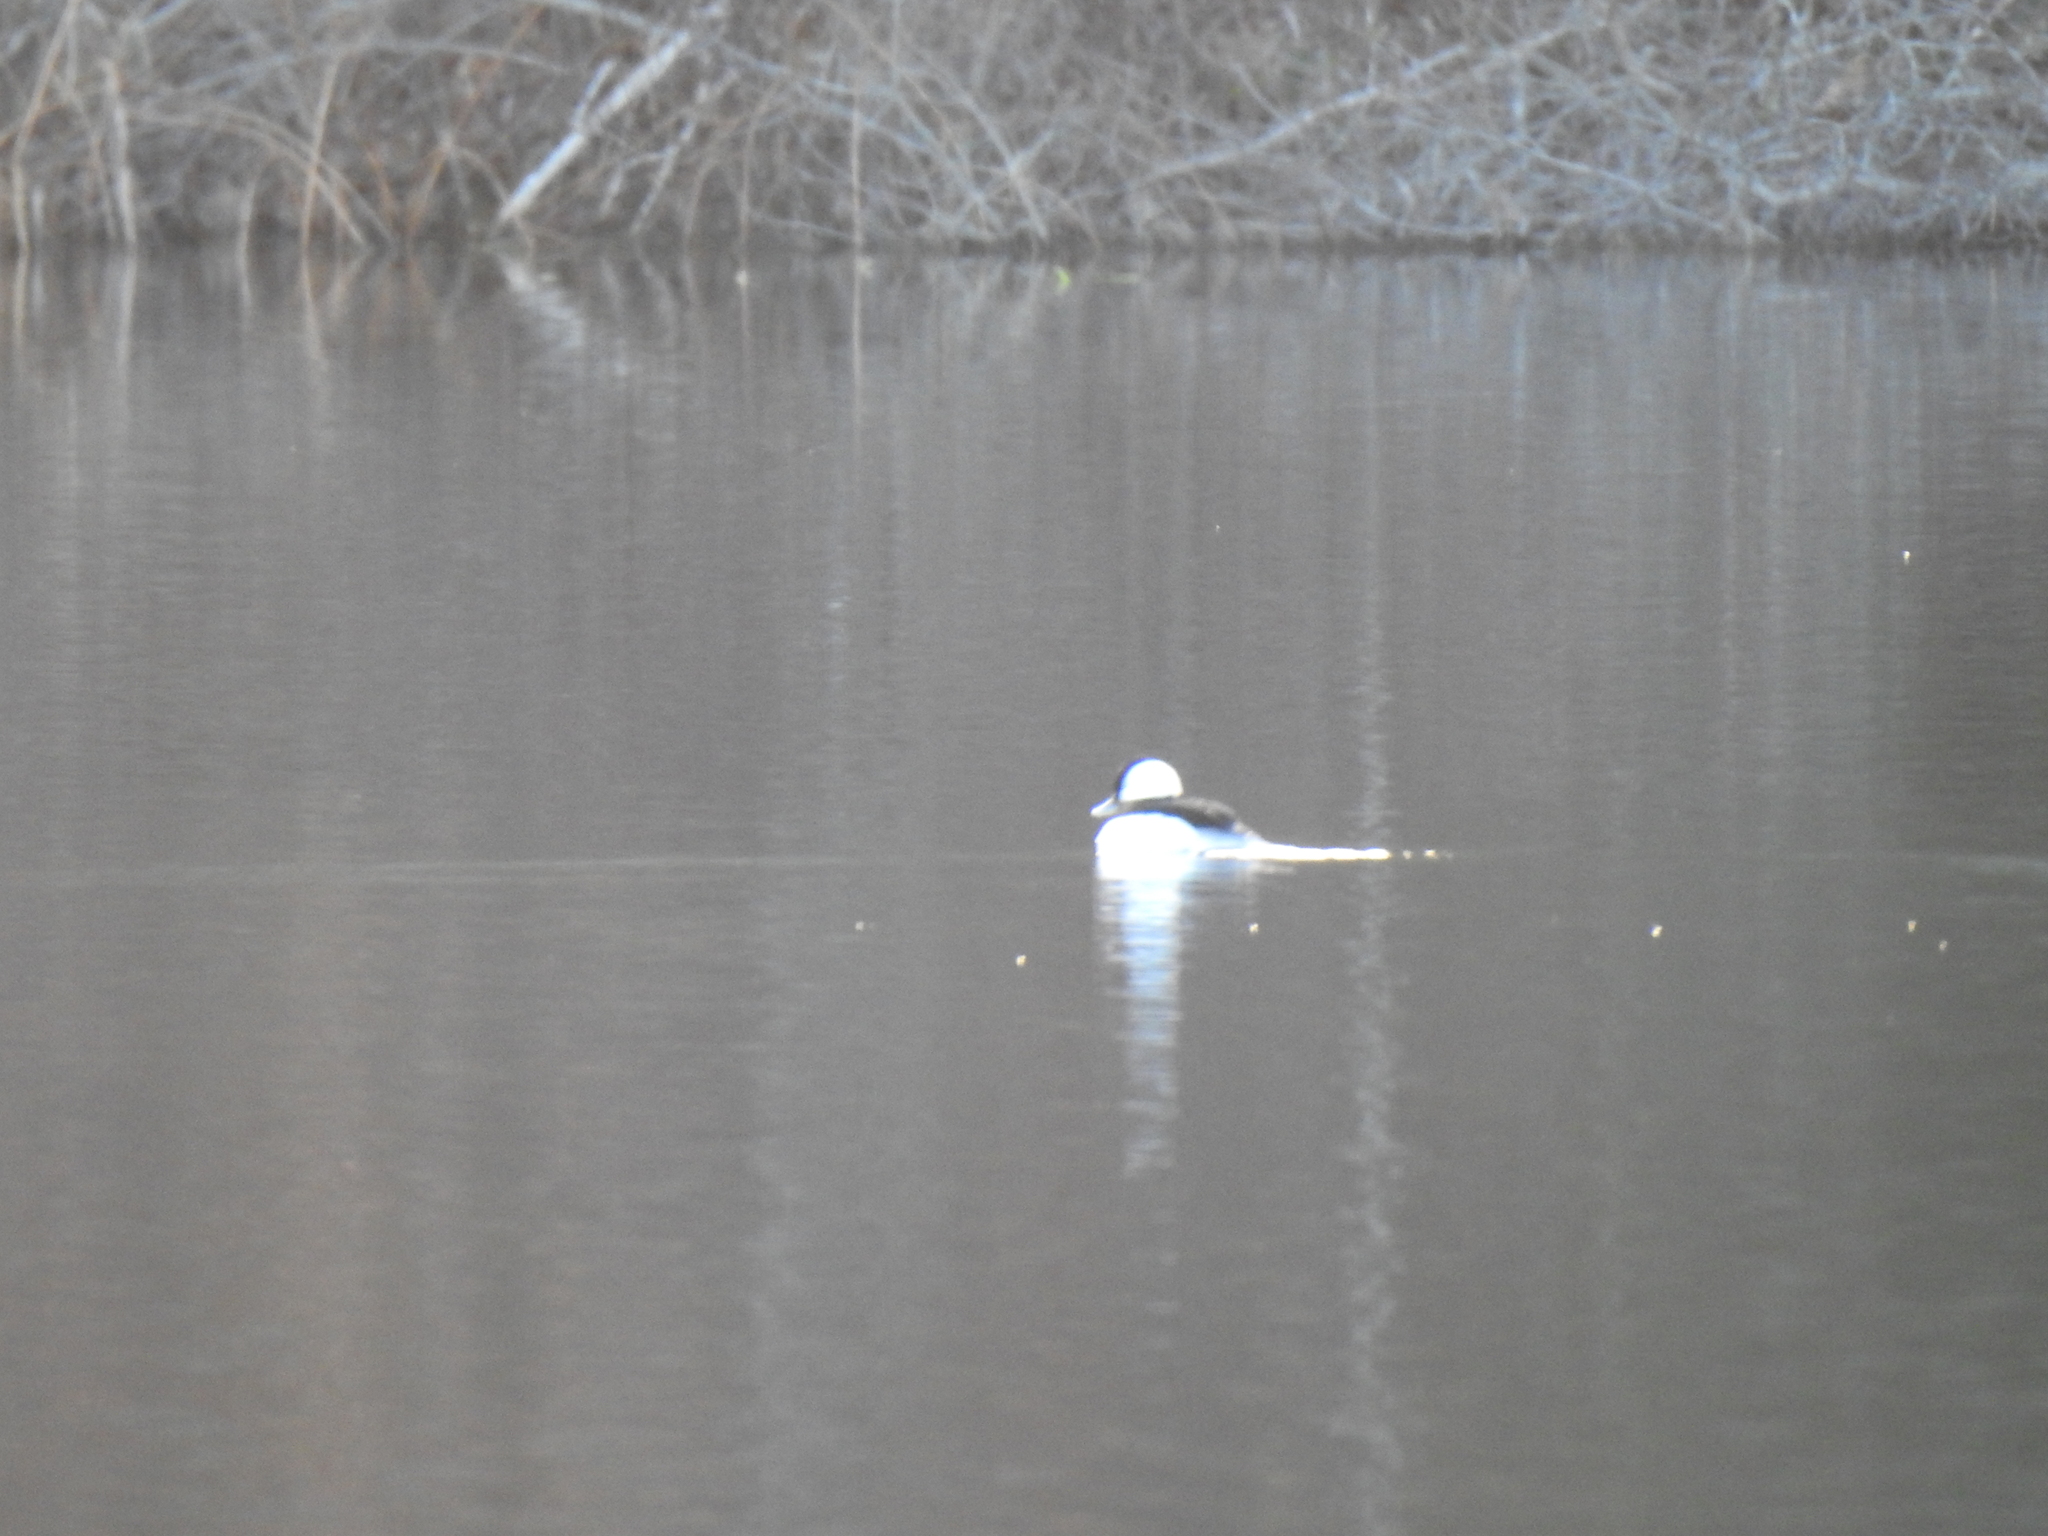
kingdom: Animalia
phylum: Chordata
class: Aves
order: Anseriformes
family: Anatidae
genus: Bucephala
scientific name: Bucephala albeola
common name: Bufflehead
